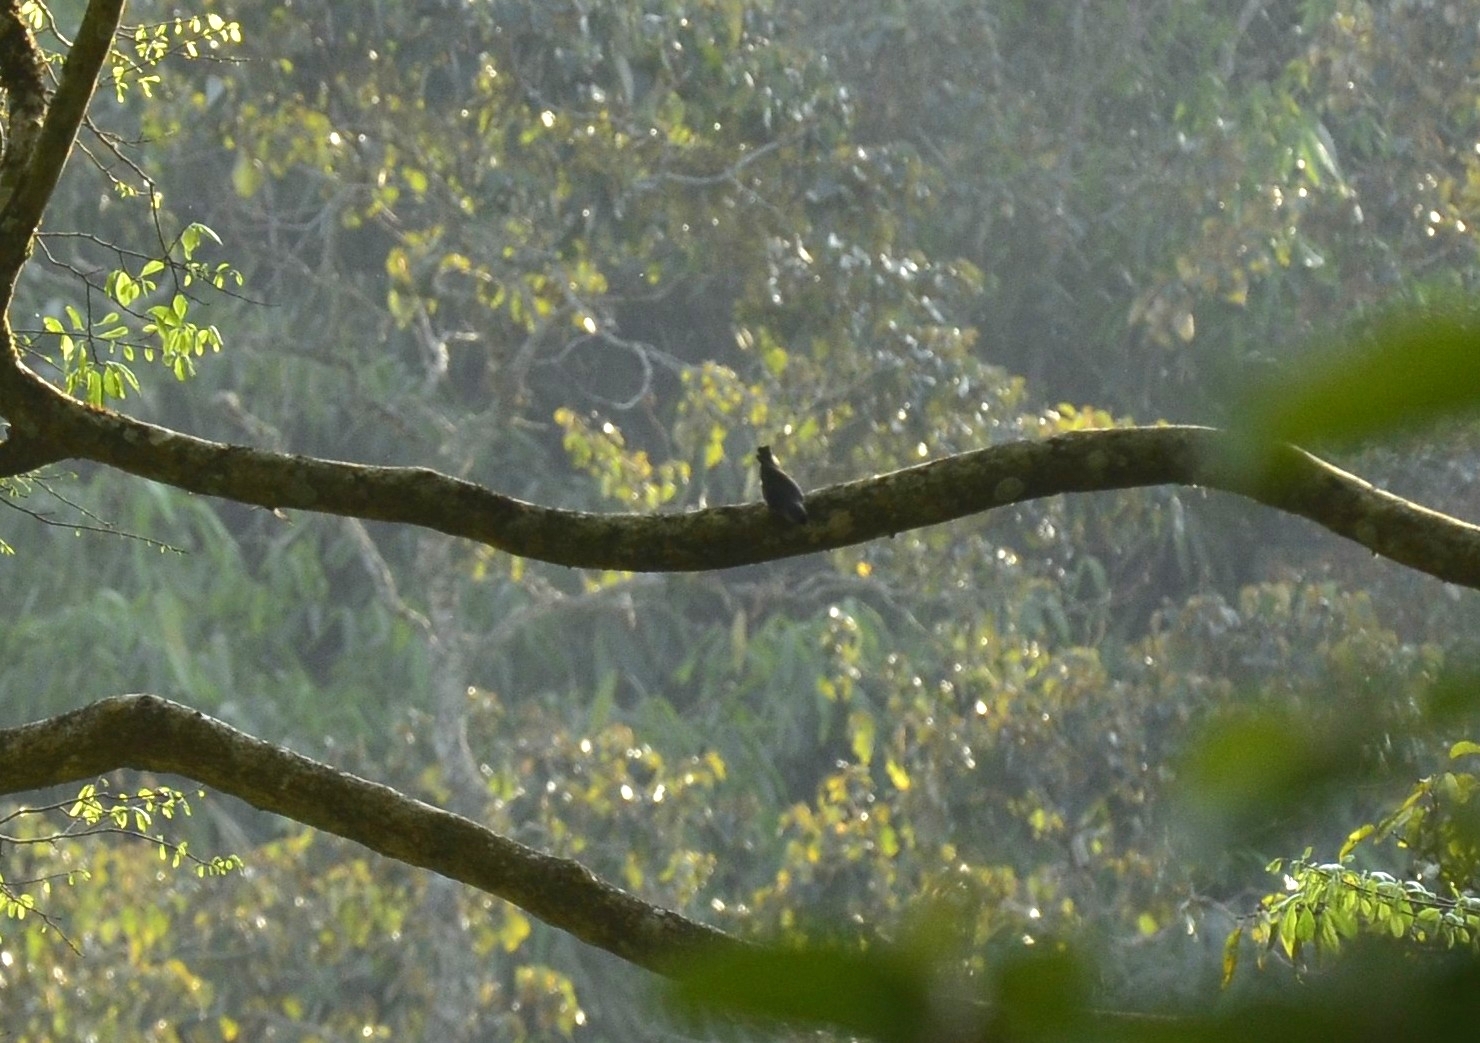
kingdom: Animalia
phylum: Chordata
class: Aves
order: Passeriformes
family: Sittidae
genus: Sitta
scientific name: Sitta frontalis
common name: Velvet-fronted nuthatch
